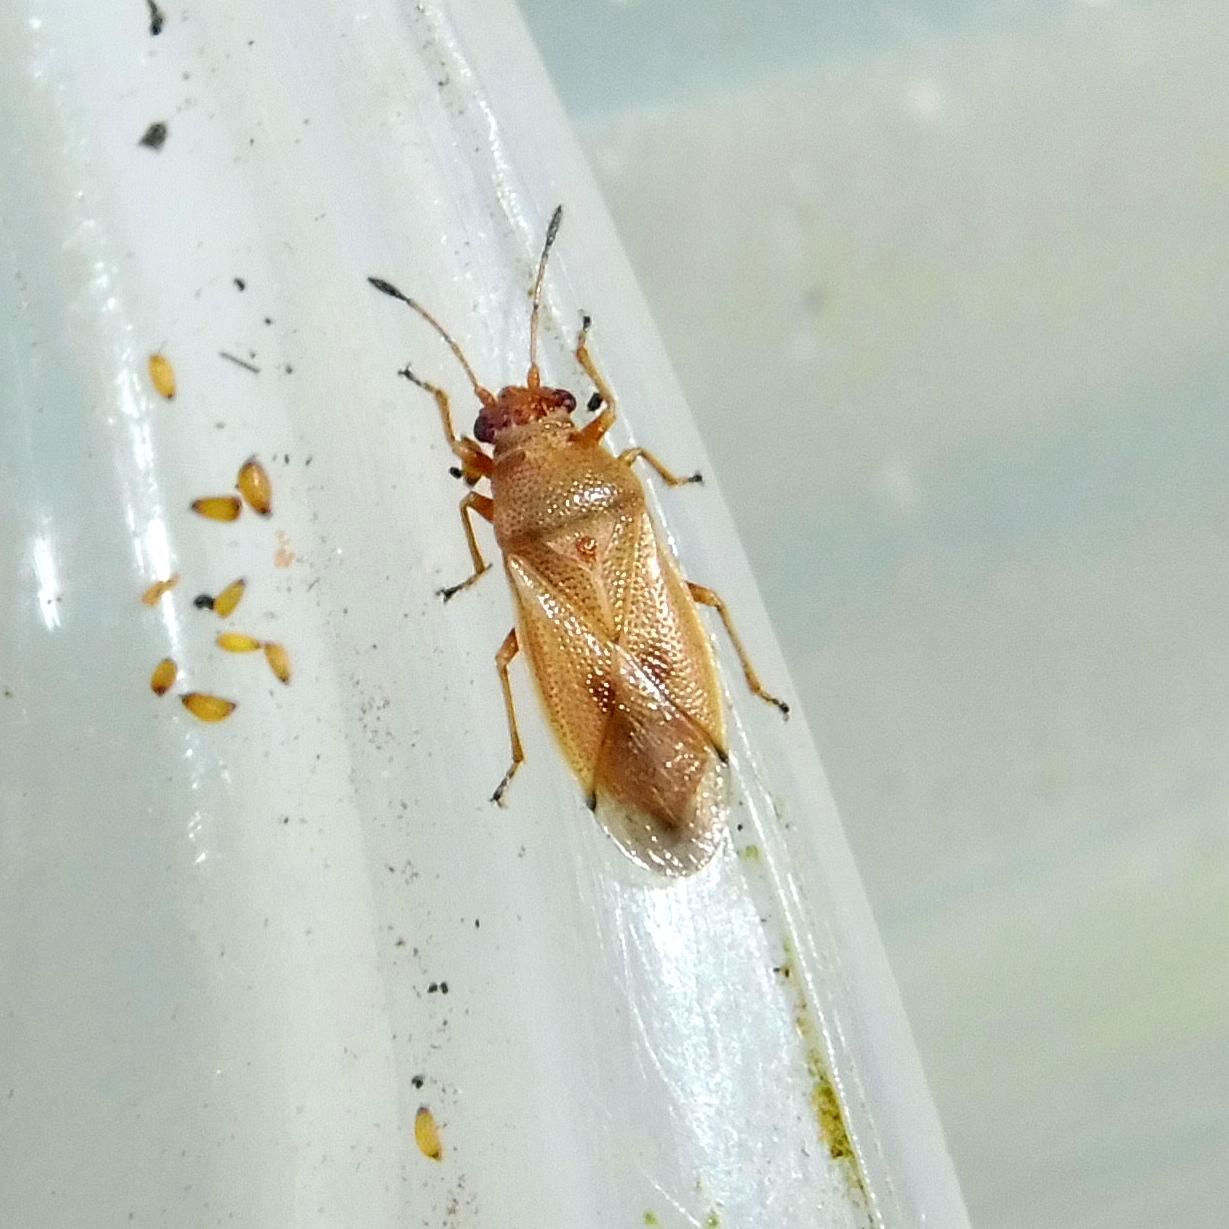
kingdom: Animalia
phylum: Arthropoda
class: Insecta
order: Hemiptera
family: Cymidae
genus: Cymus
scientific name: Cymus melanocephalus
